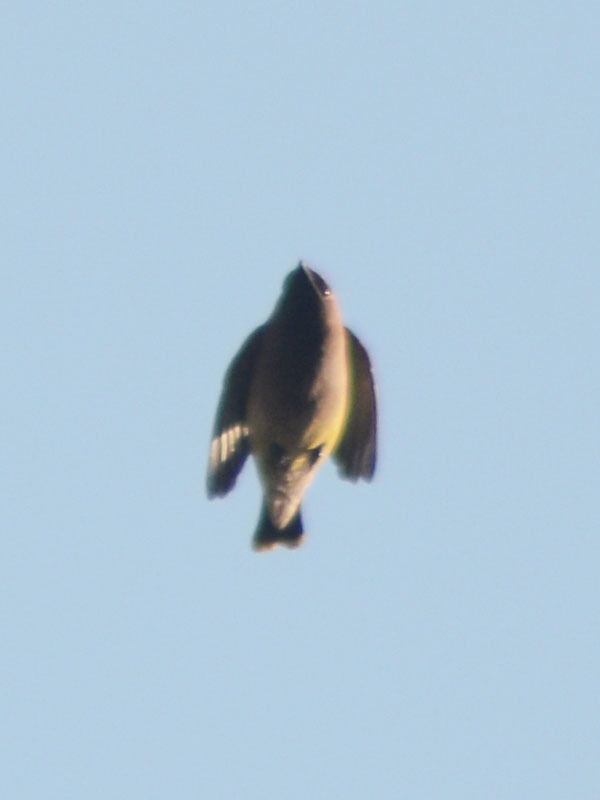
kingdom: Animalia
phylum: Chordata
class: Aves
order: Passeriformes
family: Bombycillidae
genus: Bombycilla
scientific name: Bombycilla cedrorum
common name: Cedar waxwing
